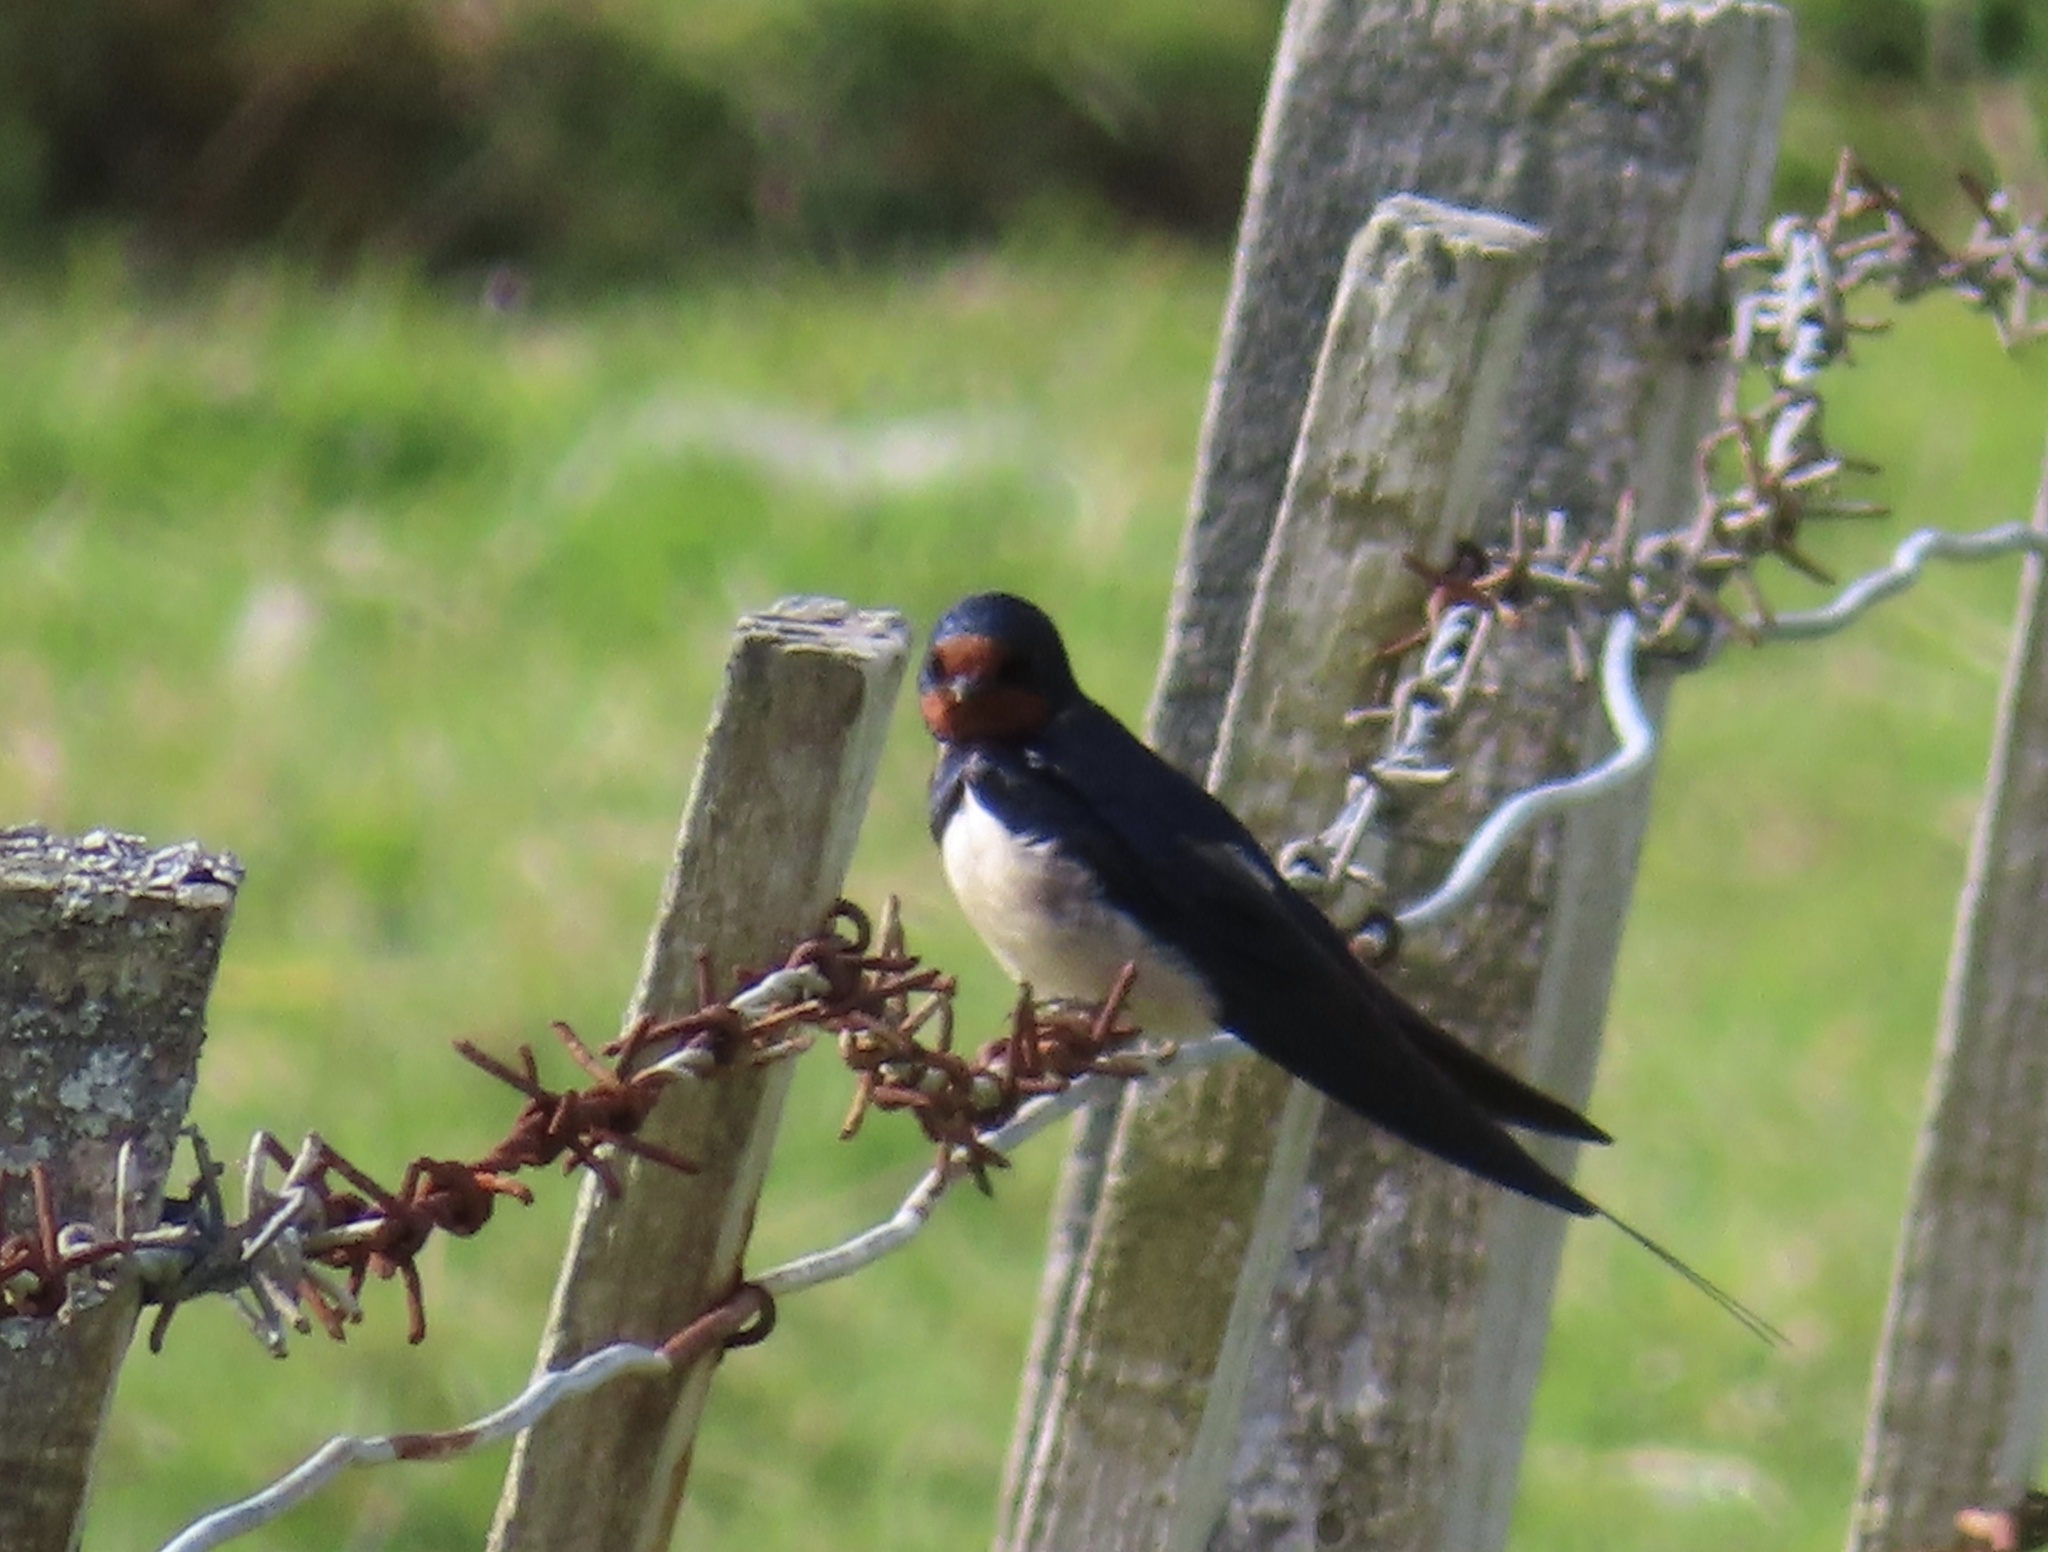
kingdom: Animalia
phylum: Chordata
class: Aves
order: Passeriformes
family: Hirundinidae
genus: Hirundo
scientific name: Hirundo rustica
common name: Barn swallow
